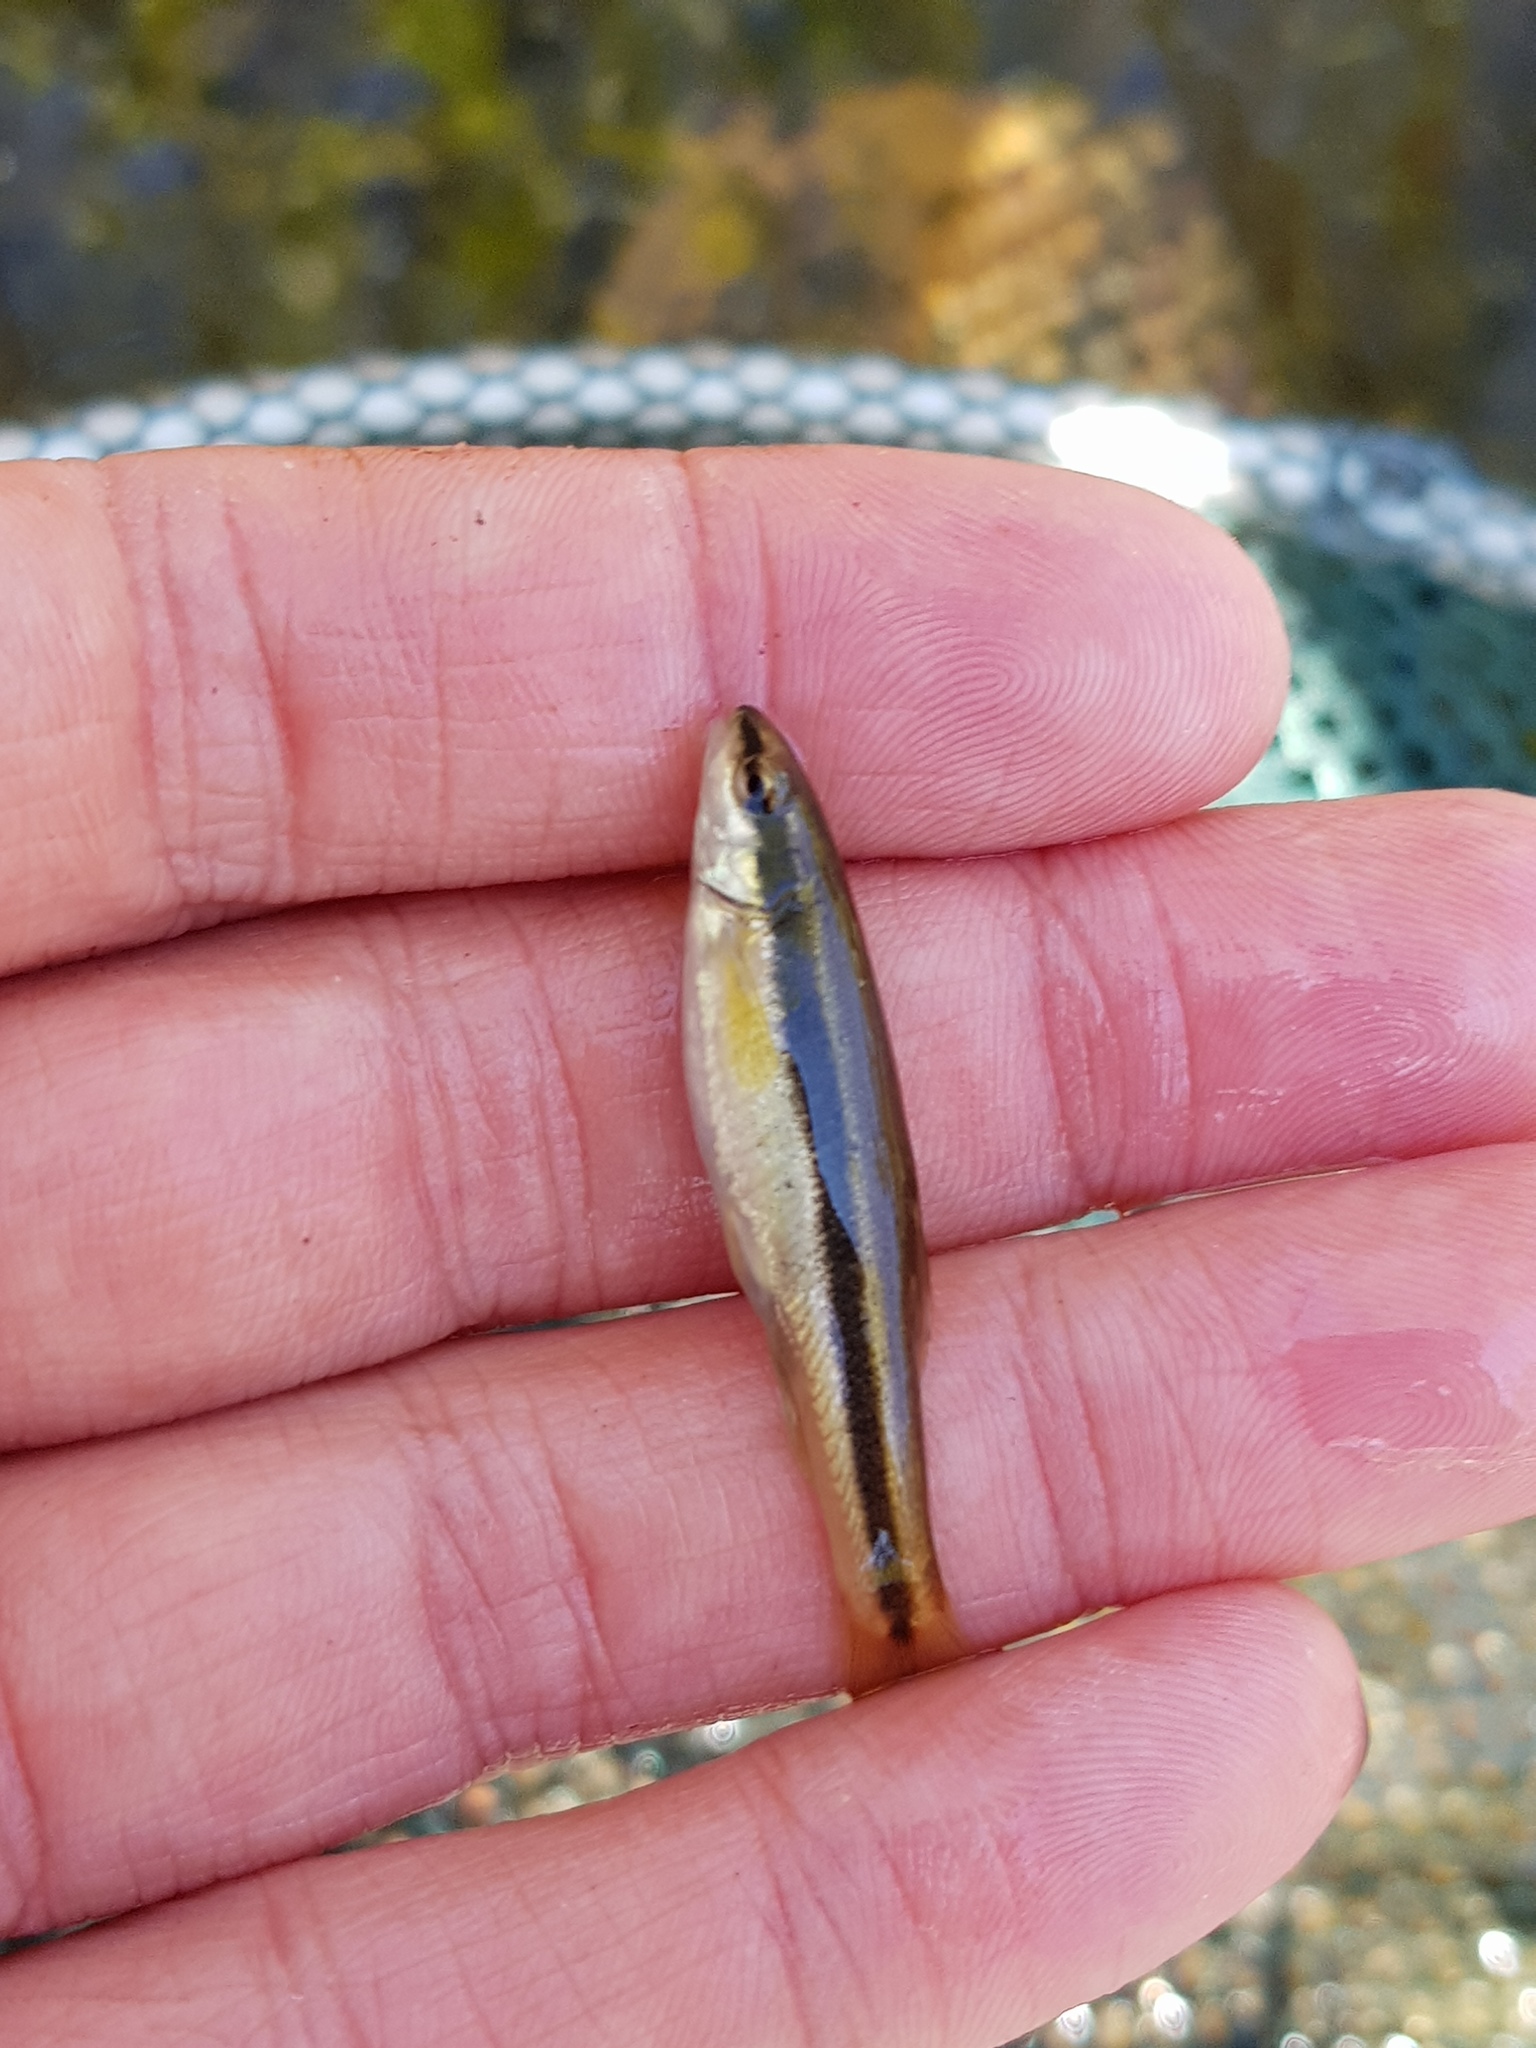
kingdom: Animalia
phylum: Chordata
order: Cypriniformes
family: Cyprinidae
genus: Rhinichthys
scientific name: Rhinichthys atratulus
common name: Eastern blacknose dace
